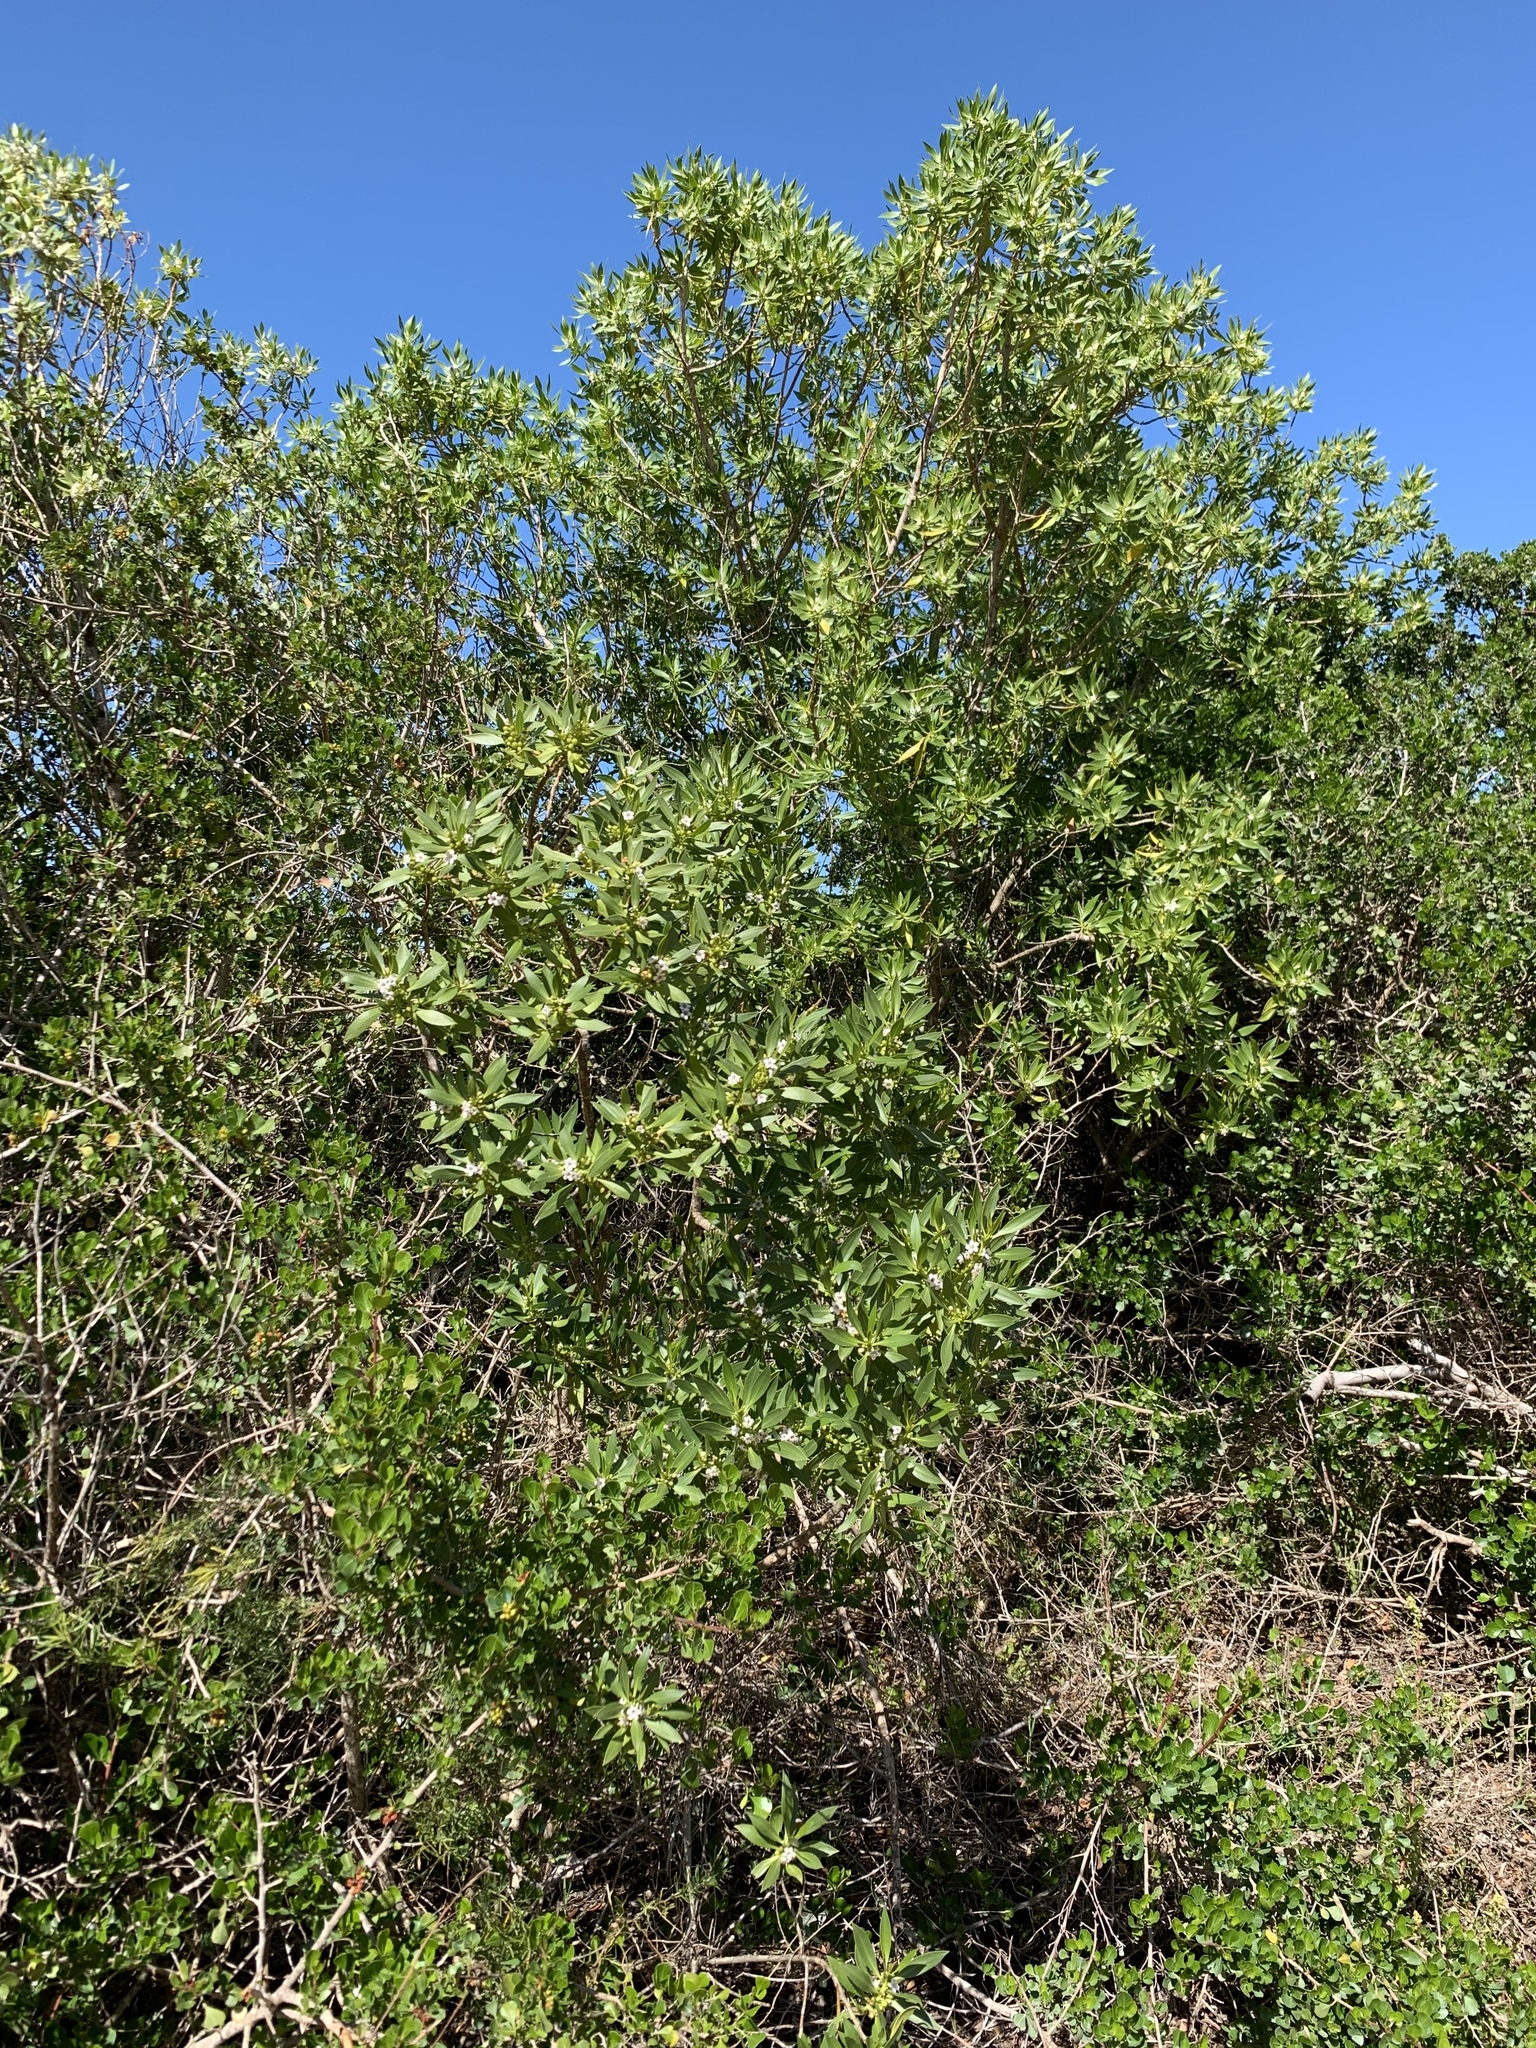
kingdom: Plantae
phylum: Tracheophyta
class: Magnoliopsida
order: Lamiales
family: Scrophulariaceae
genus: Myoporum
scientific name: Myoporum insulare
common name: Common boobialla
